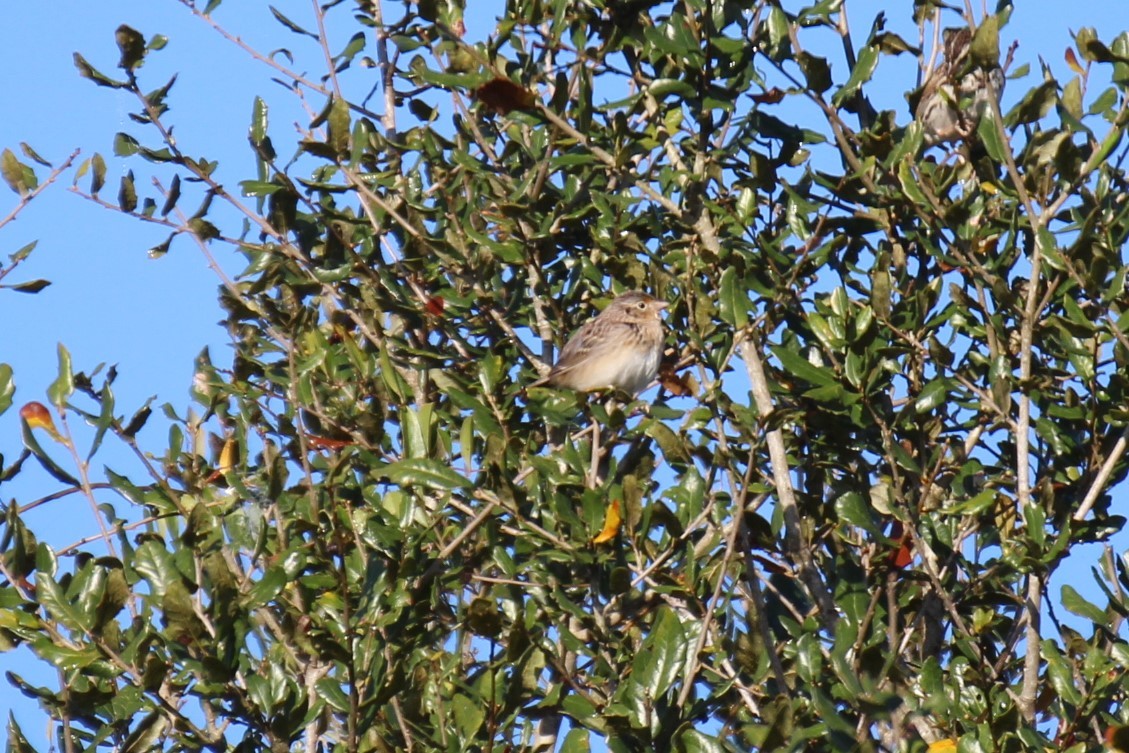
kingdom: Animalia
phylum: Chordata
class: Aves
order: Passeriformes
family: Passerellidae
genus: Ammodramus
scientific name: Ammodramus savannarum
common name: Grasshopper sparrow
